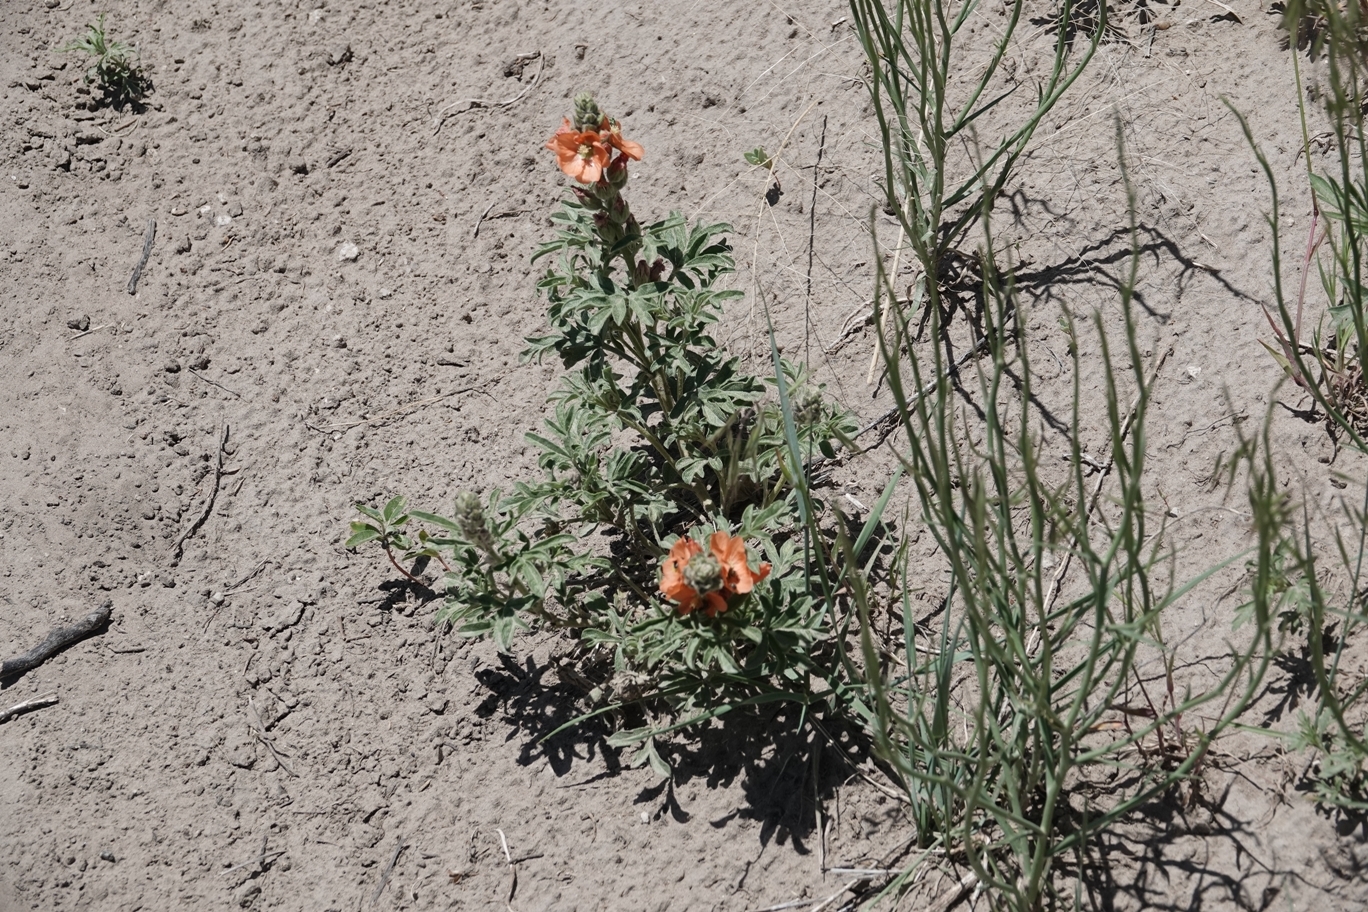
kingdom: Plantae
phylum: Tracheophyta
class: Magnoliopsida
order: Malvales
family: Malvaceae
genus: Sphaeralcea
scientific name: Sphaeralcea coccinea
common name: Moss-rose
